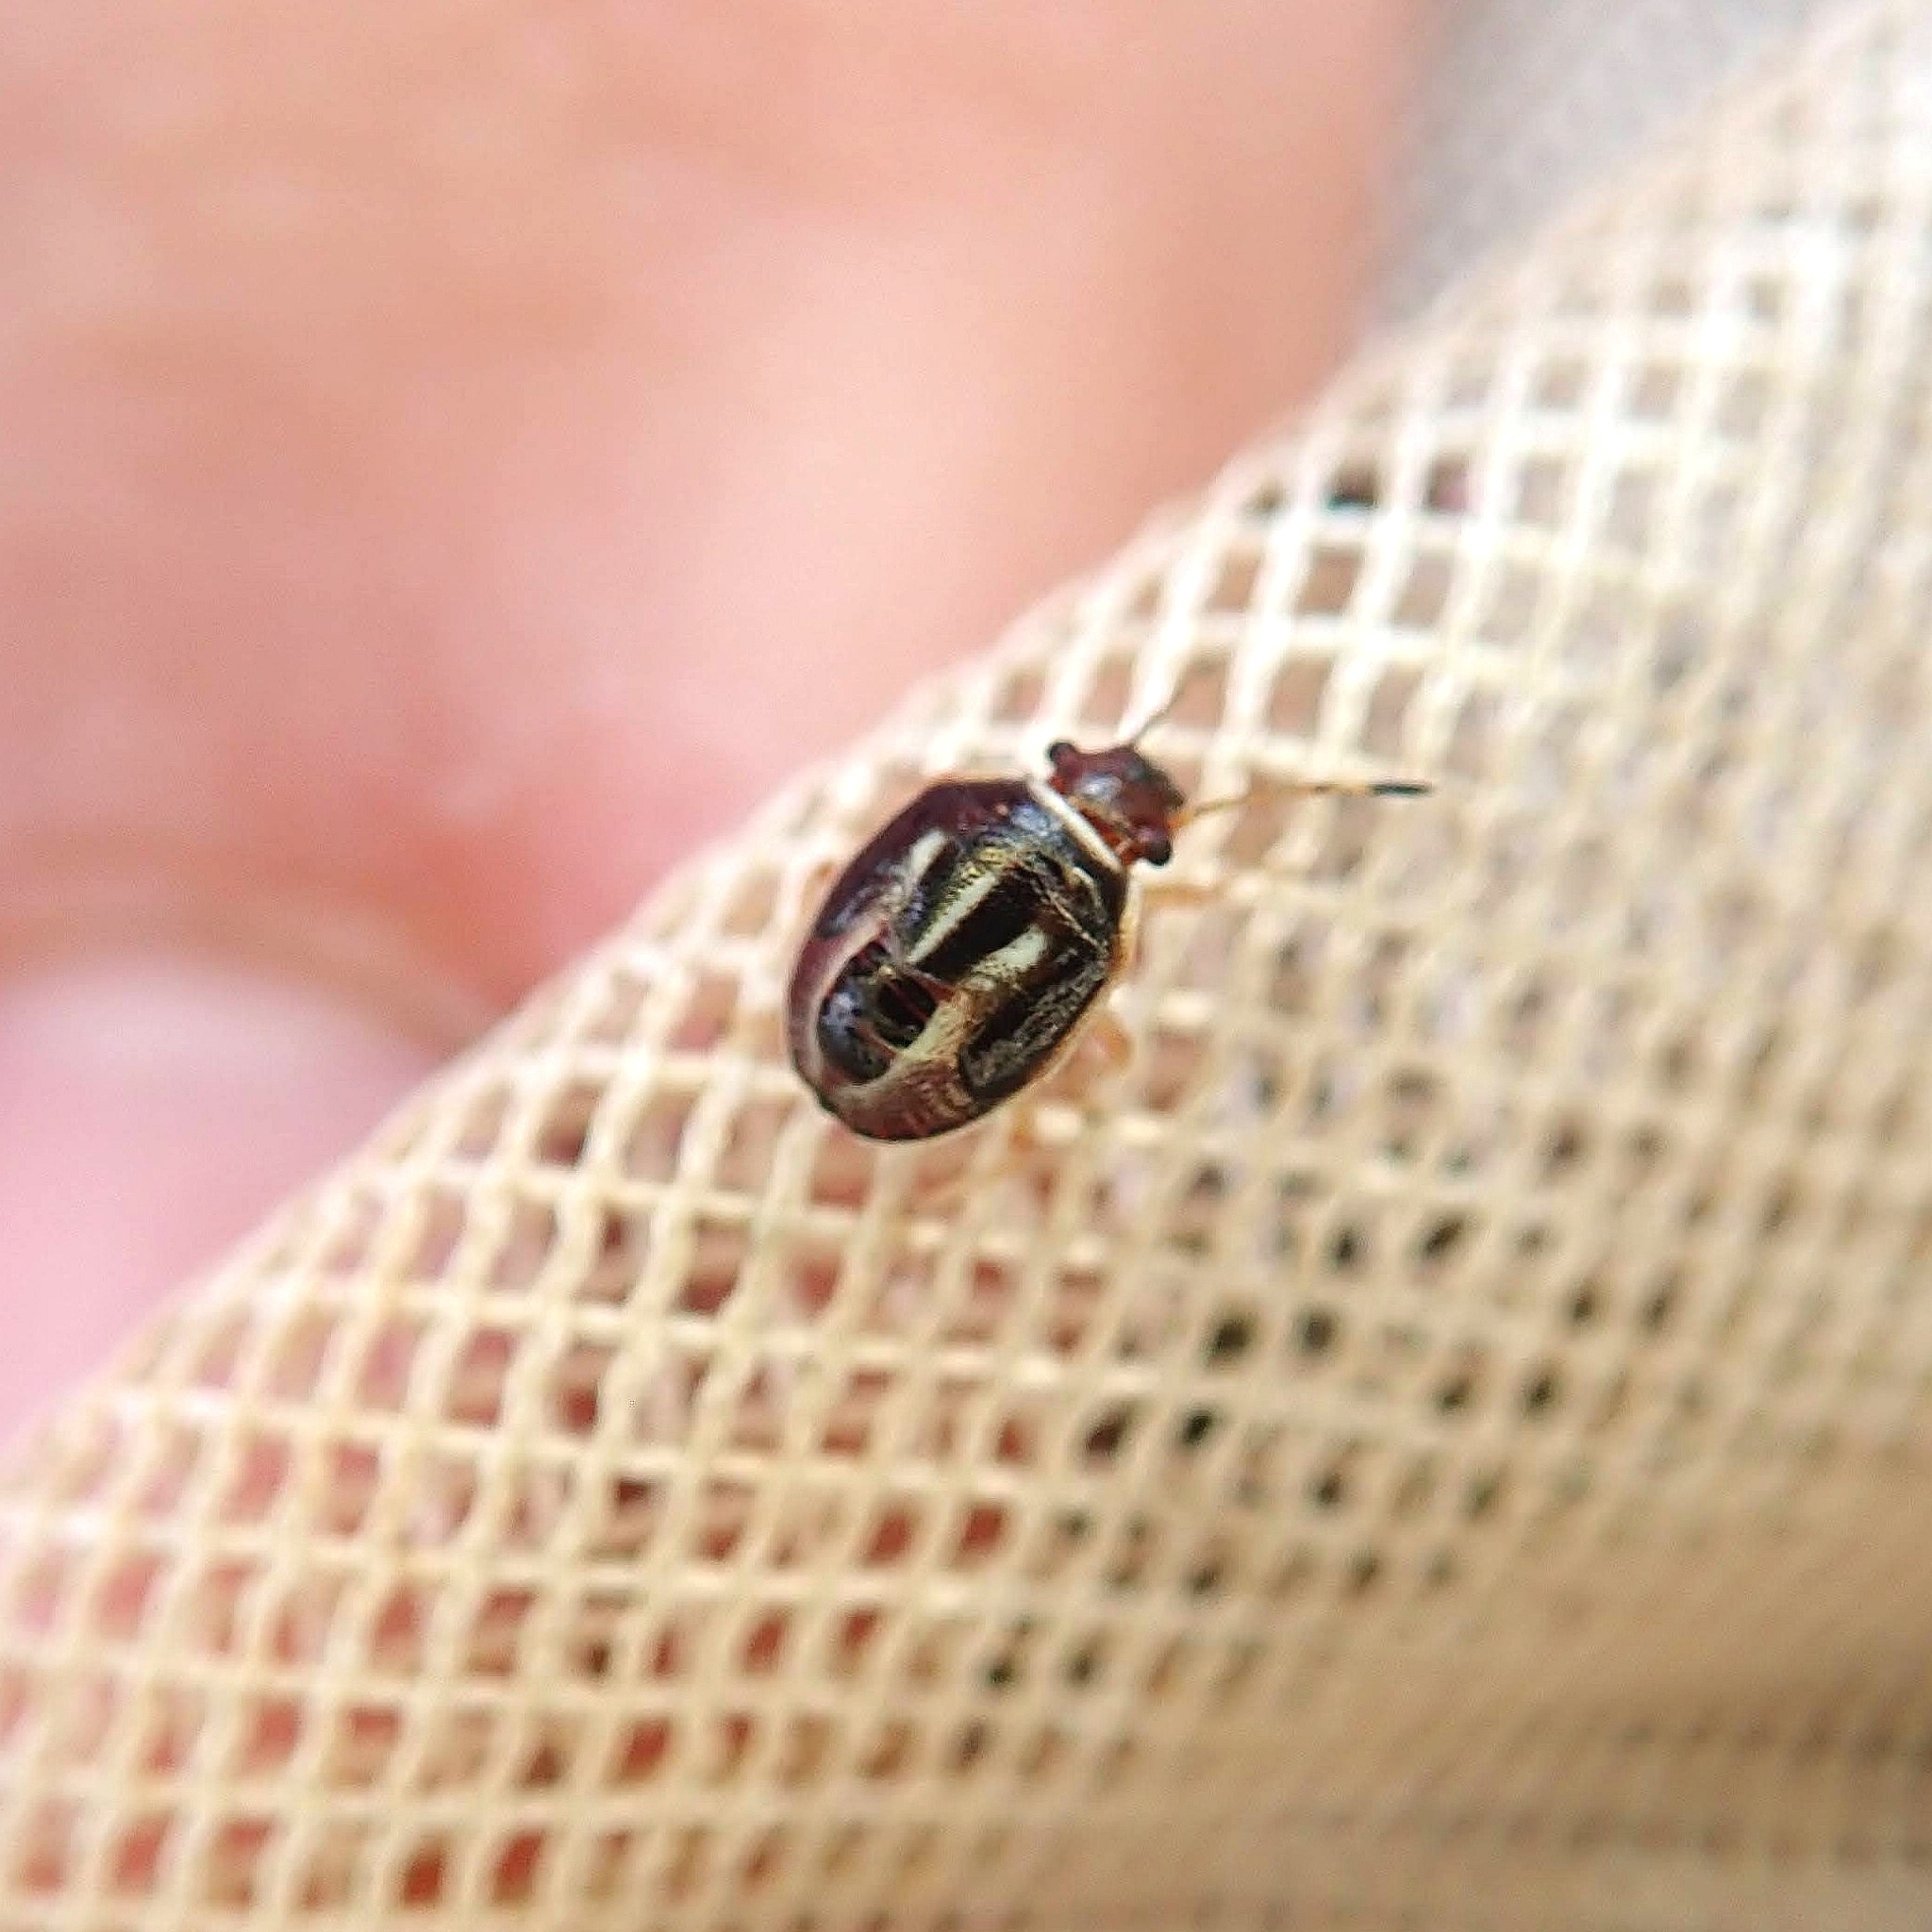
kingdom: Animalia
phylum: Arthropoda
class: Insecta
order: Hemiptera
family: Pentatomidae
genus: Mormidea
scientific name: Mormidea lugens
